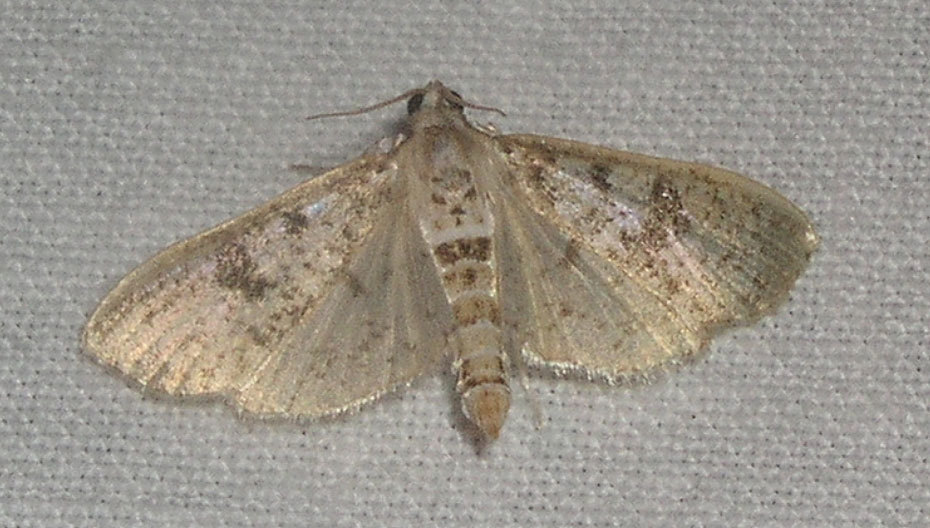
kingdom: Animalia
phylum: Arthropoda
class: Insecta
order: Lepidoptera
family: Crambidae
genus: Palpita
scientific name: Palpita magniferalis
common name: Splendid palpita moth
